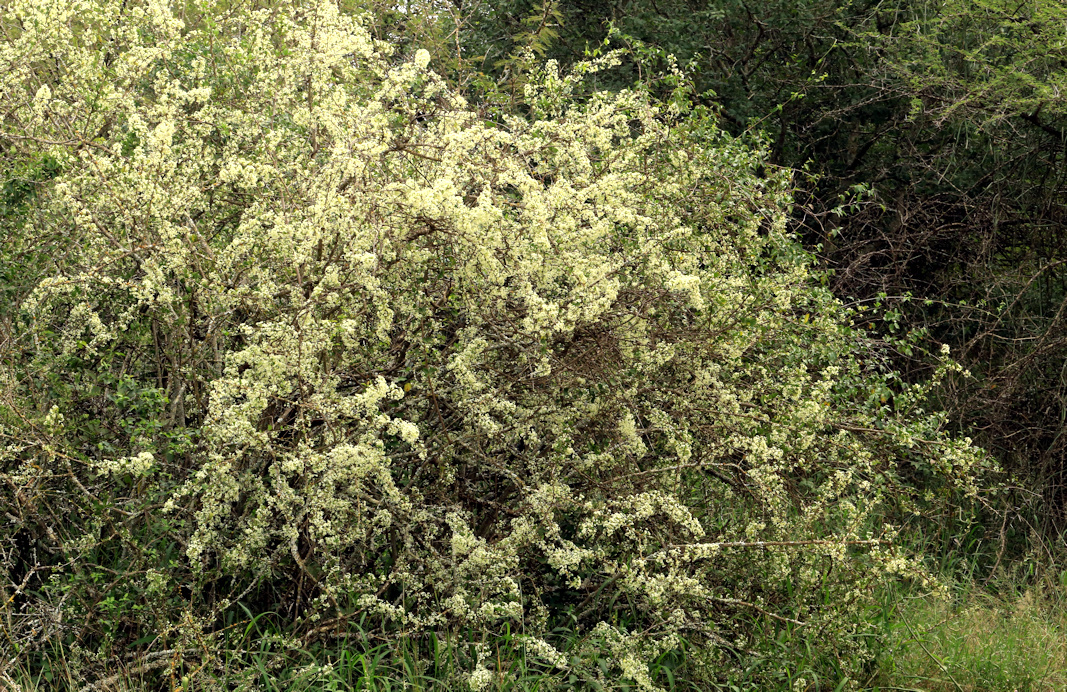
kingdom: Plantae
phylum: Tracheophyta
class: Magnoliopsida
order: Celastrales
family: Celastraceae
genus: Gymnosporia
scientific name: Gymnosporia maranguensis
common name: Tropical spike-thorn
